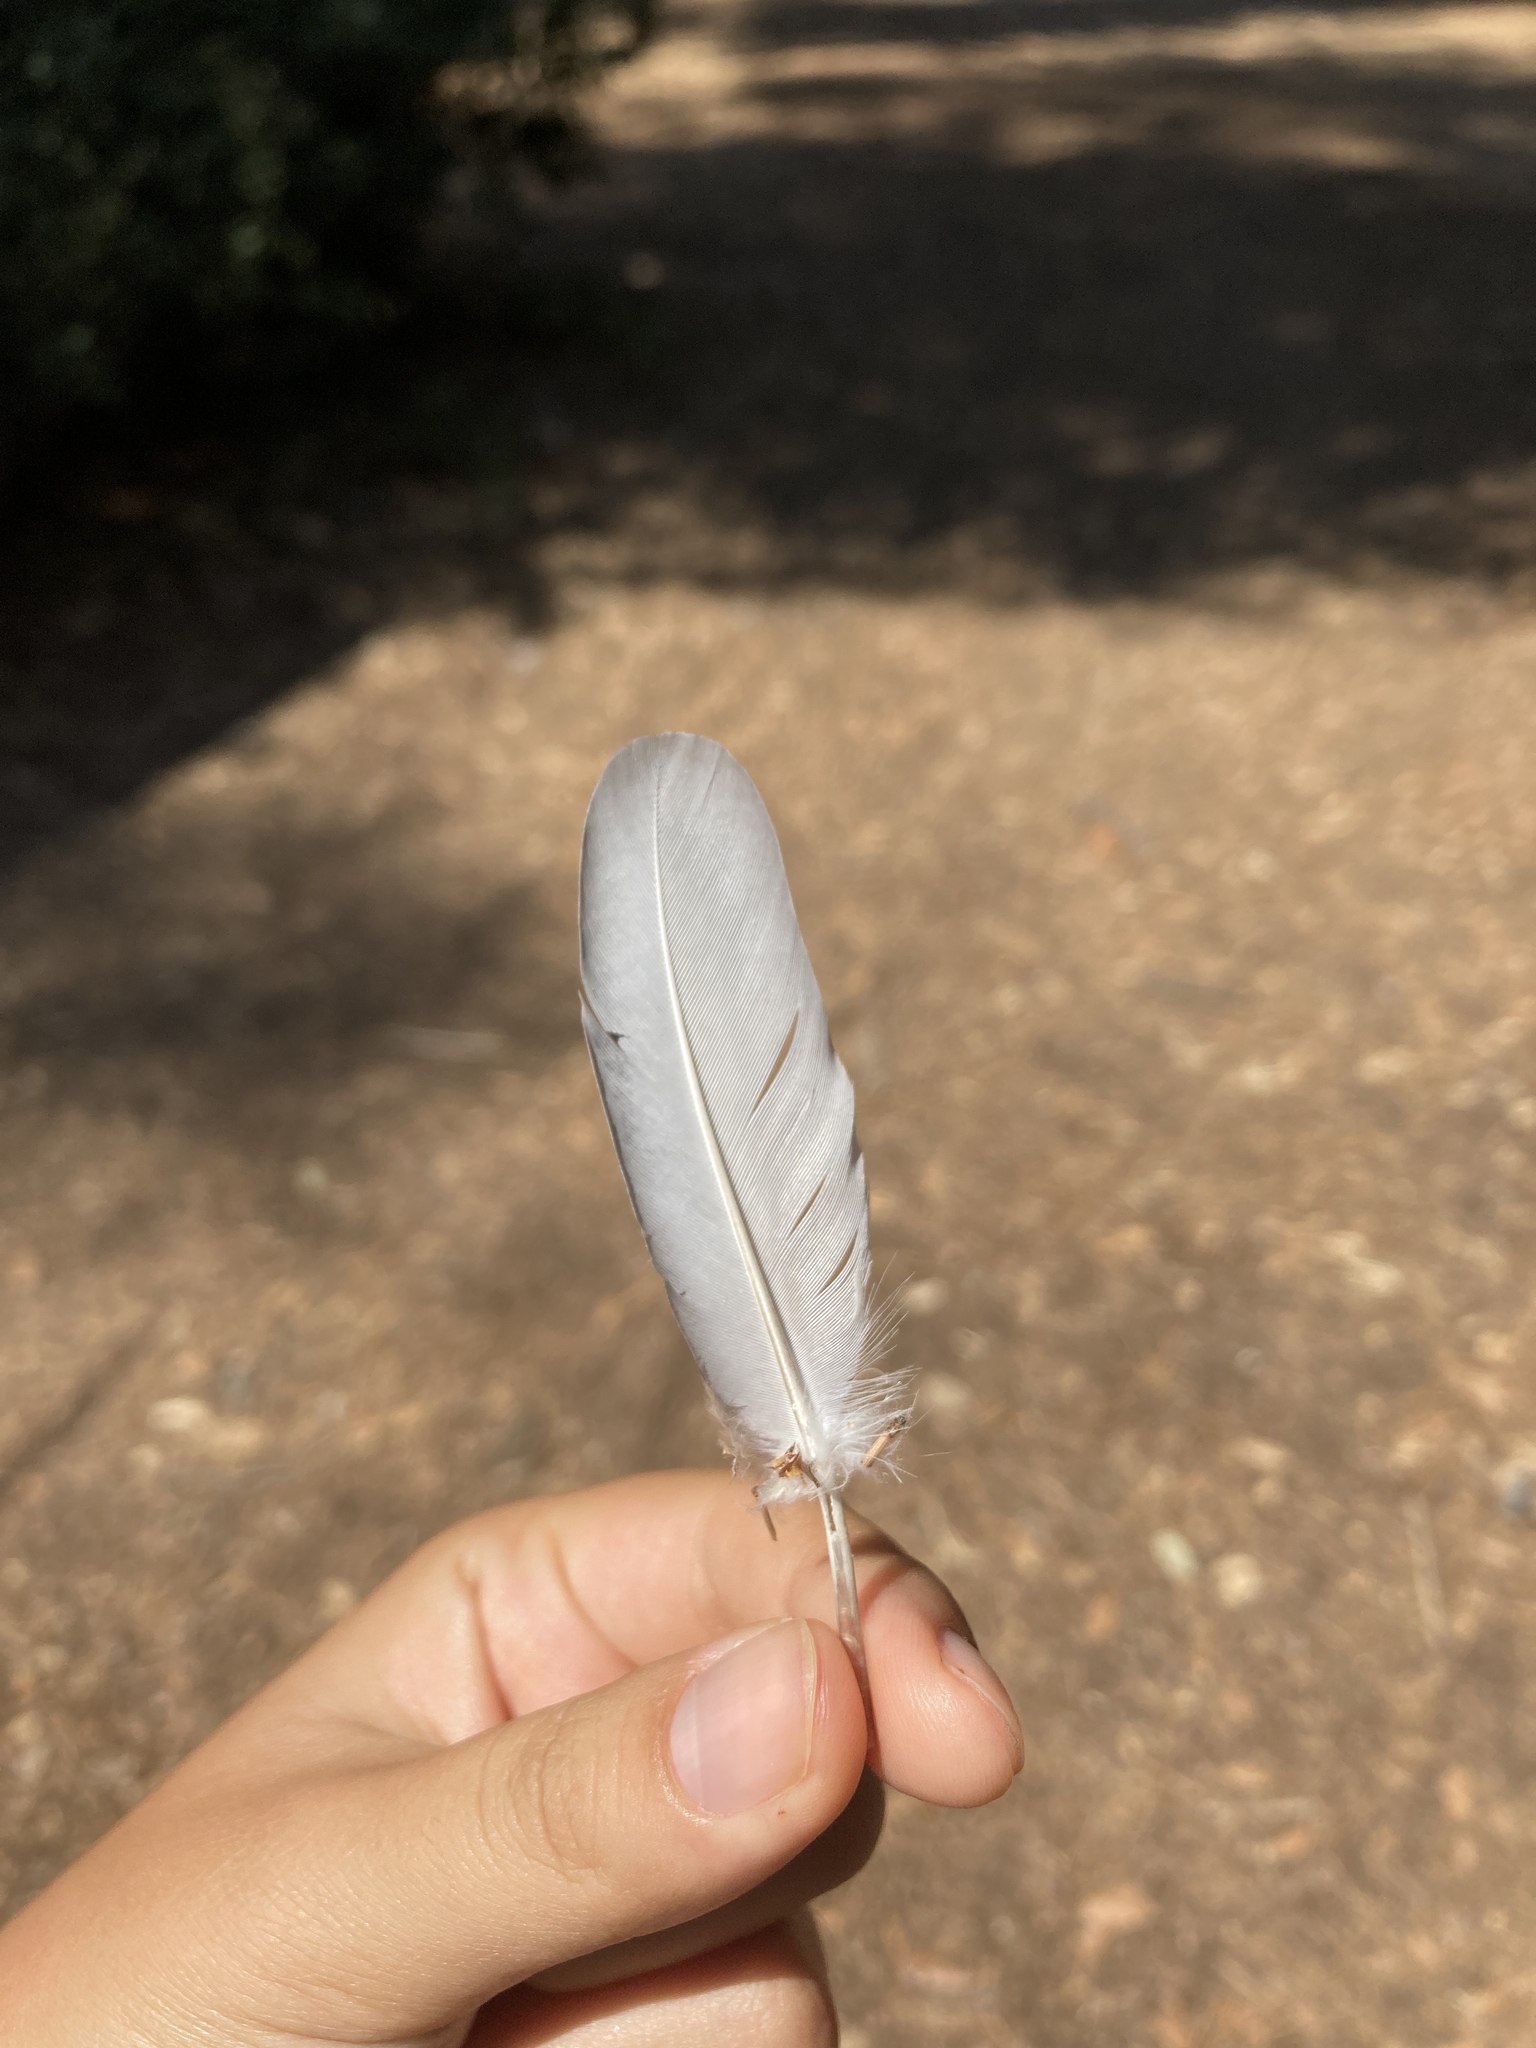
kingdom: Animalia
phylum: Chordata
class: Aves
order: Columbiformes
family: Columbidae
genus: Columba
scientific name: Columba livia
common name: Rock pigeon
